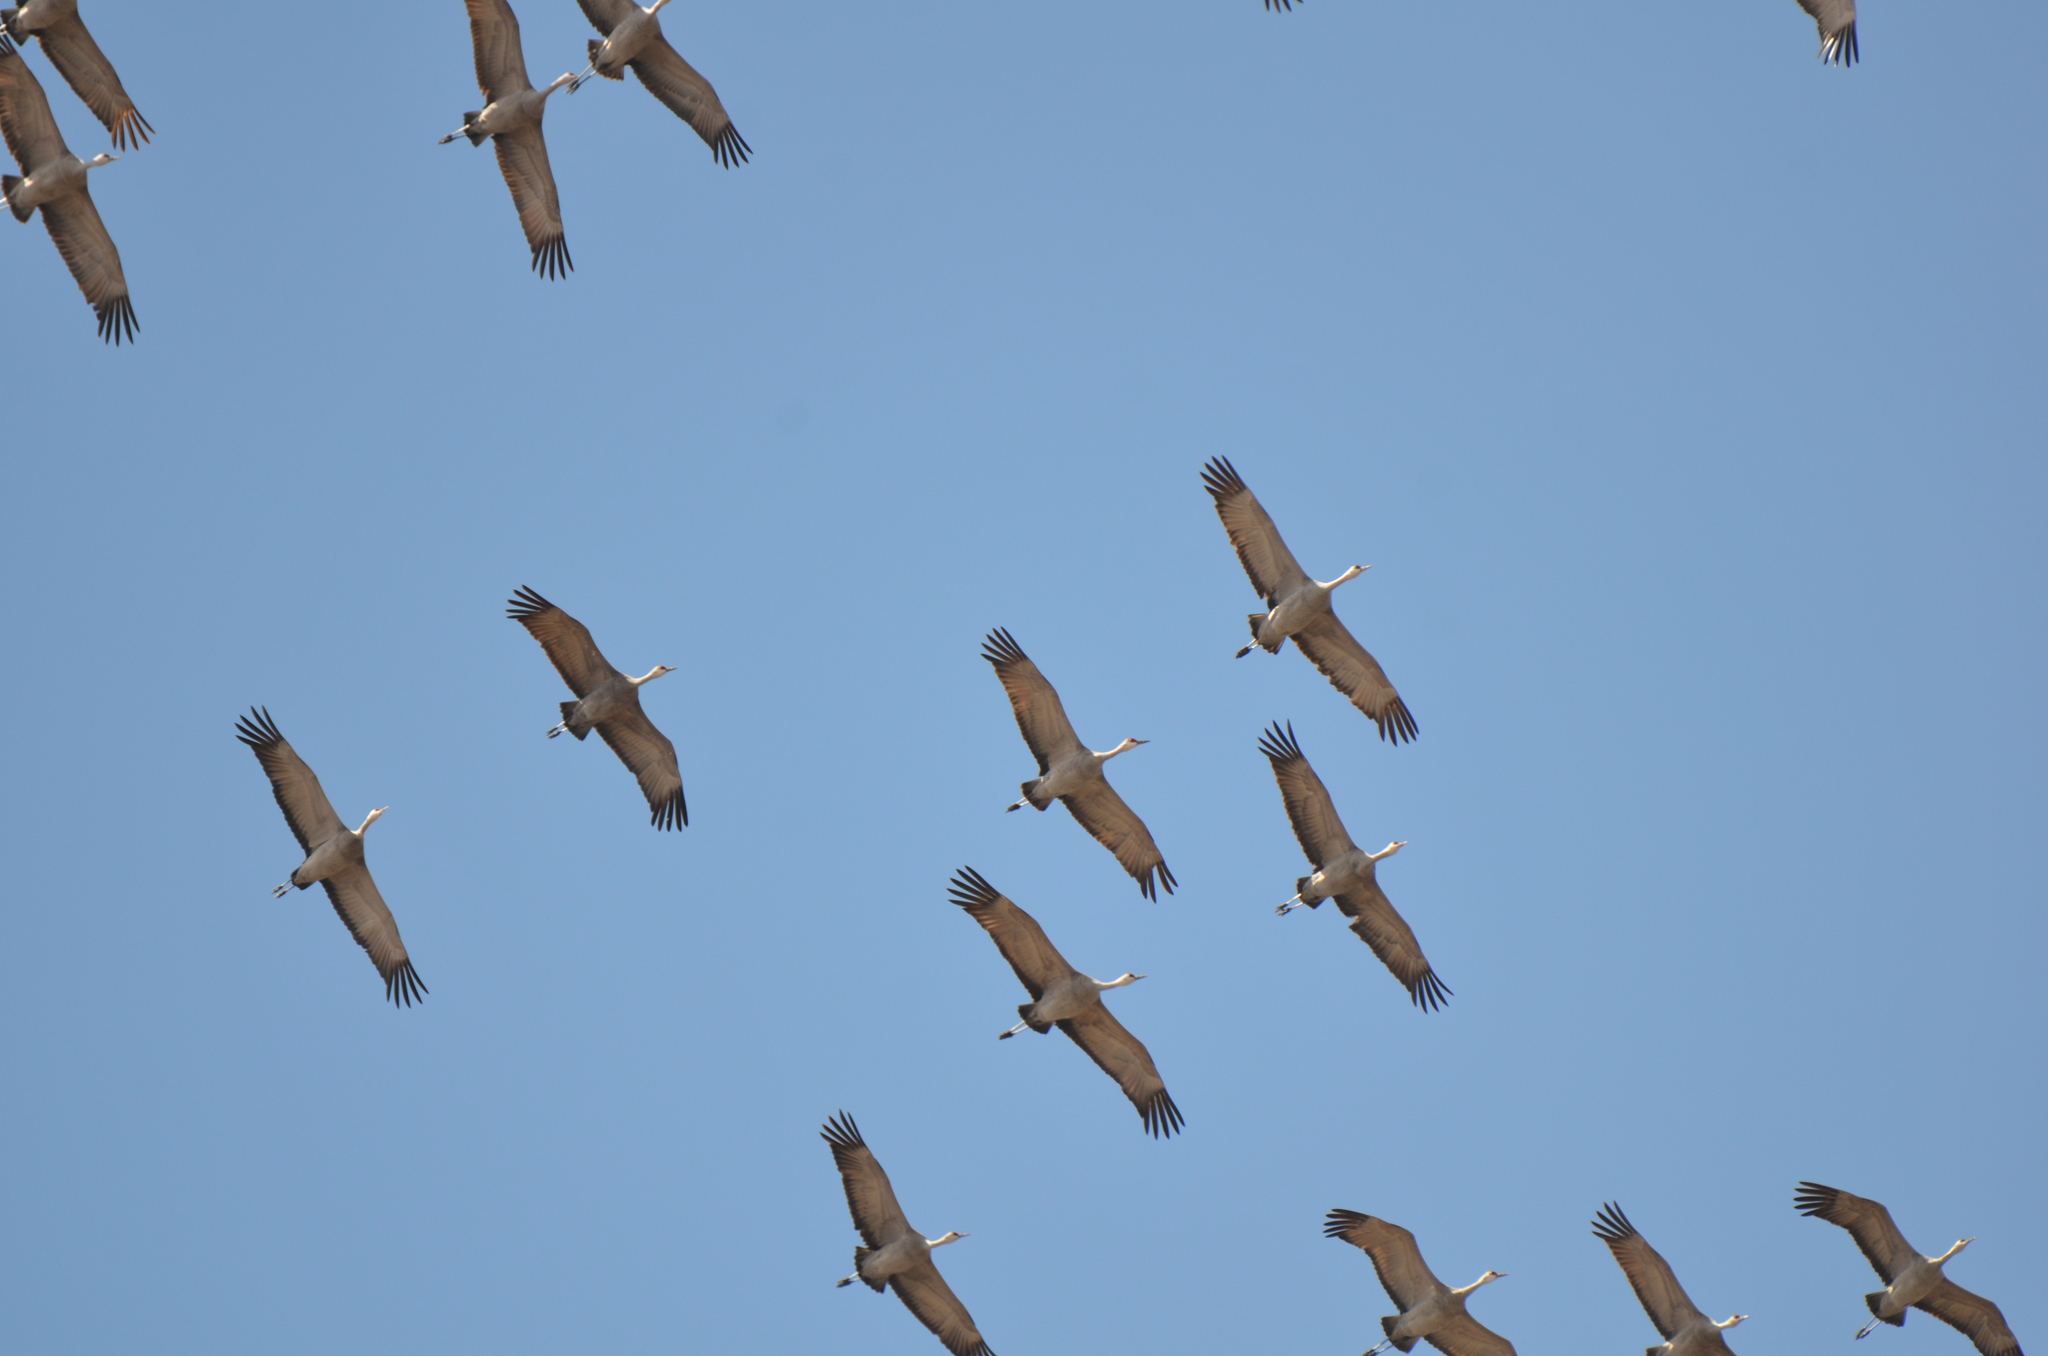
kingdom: Animalia
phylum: Chordata
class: Aves
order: Gruiformes
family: Gruidae
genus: Grus
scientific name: Grus canadensis
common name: Sandhill crane
